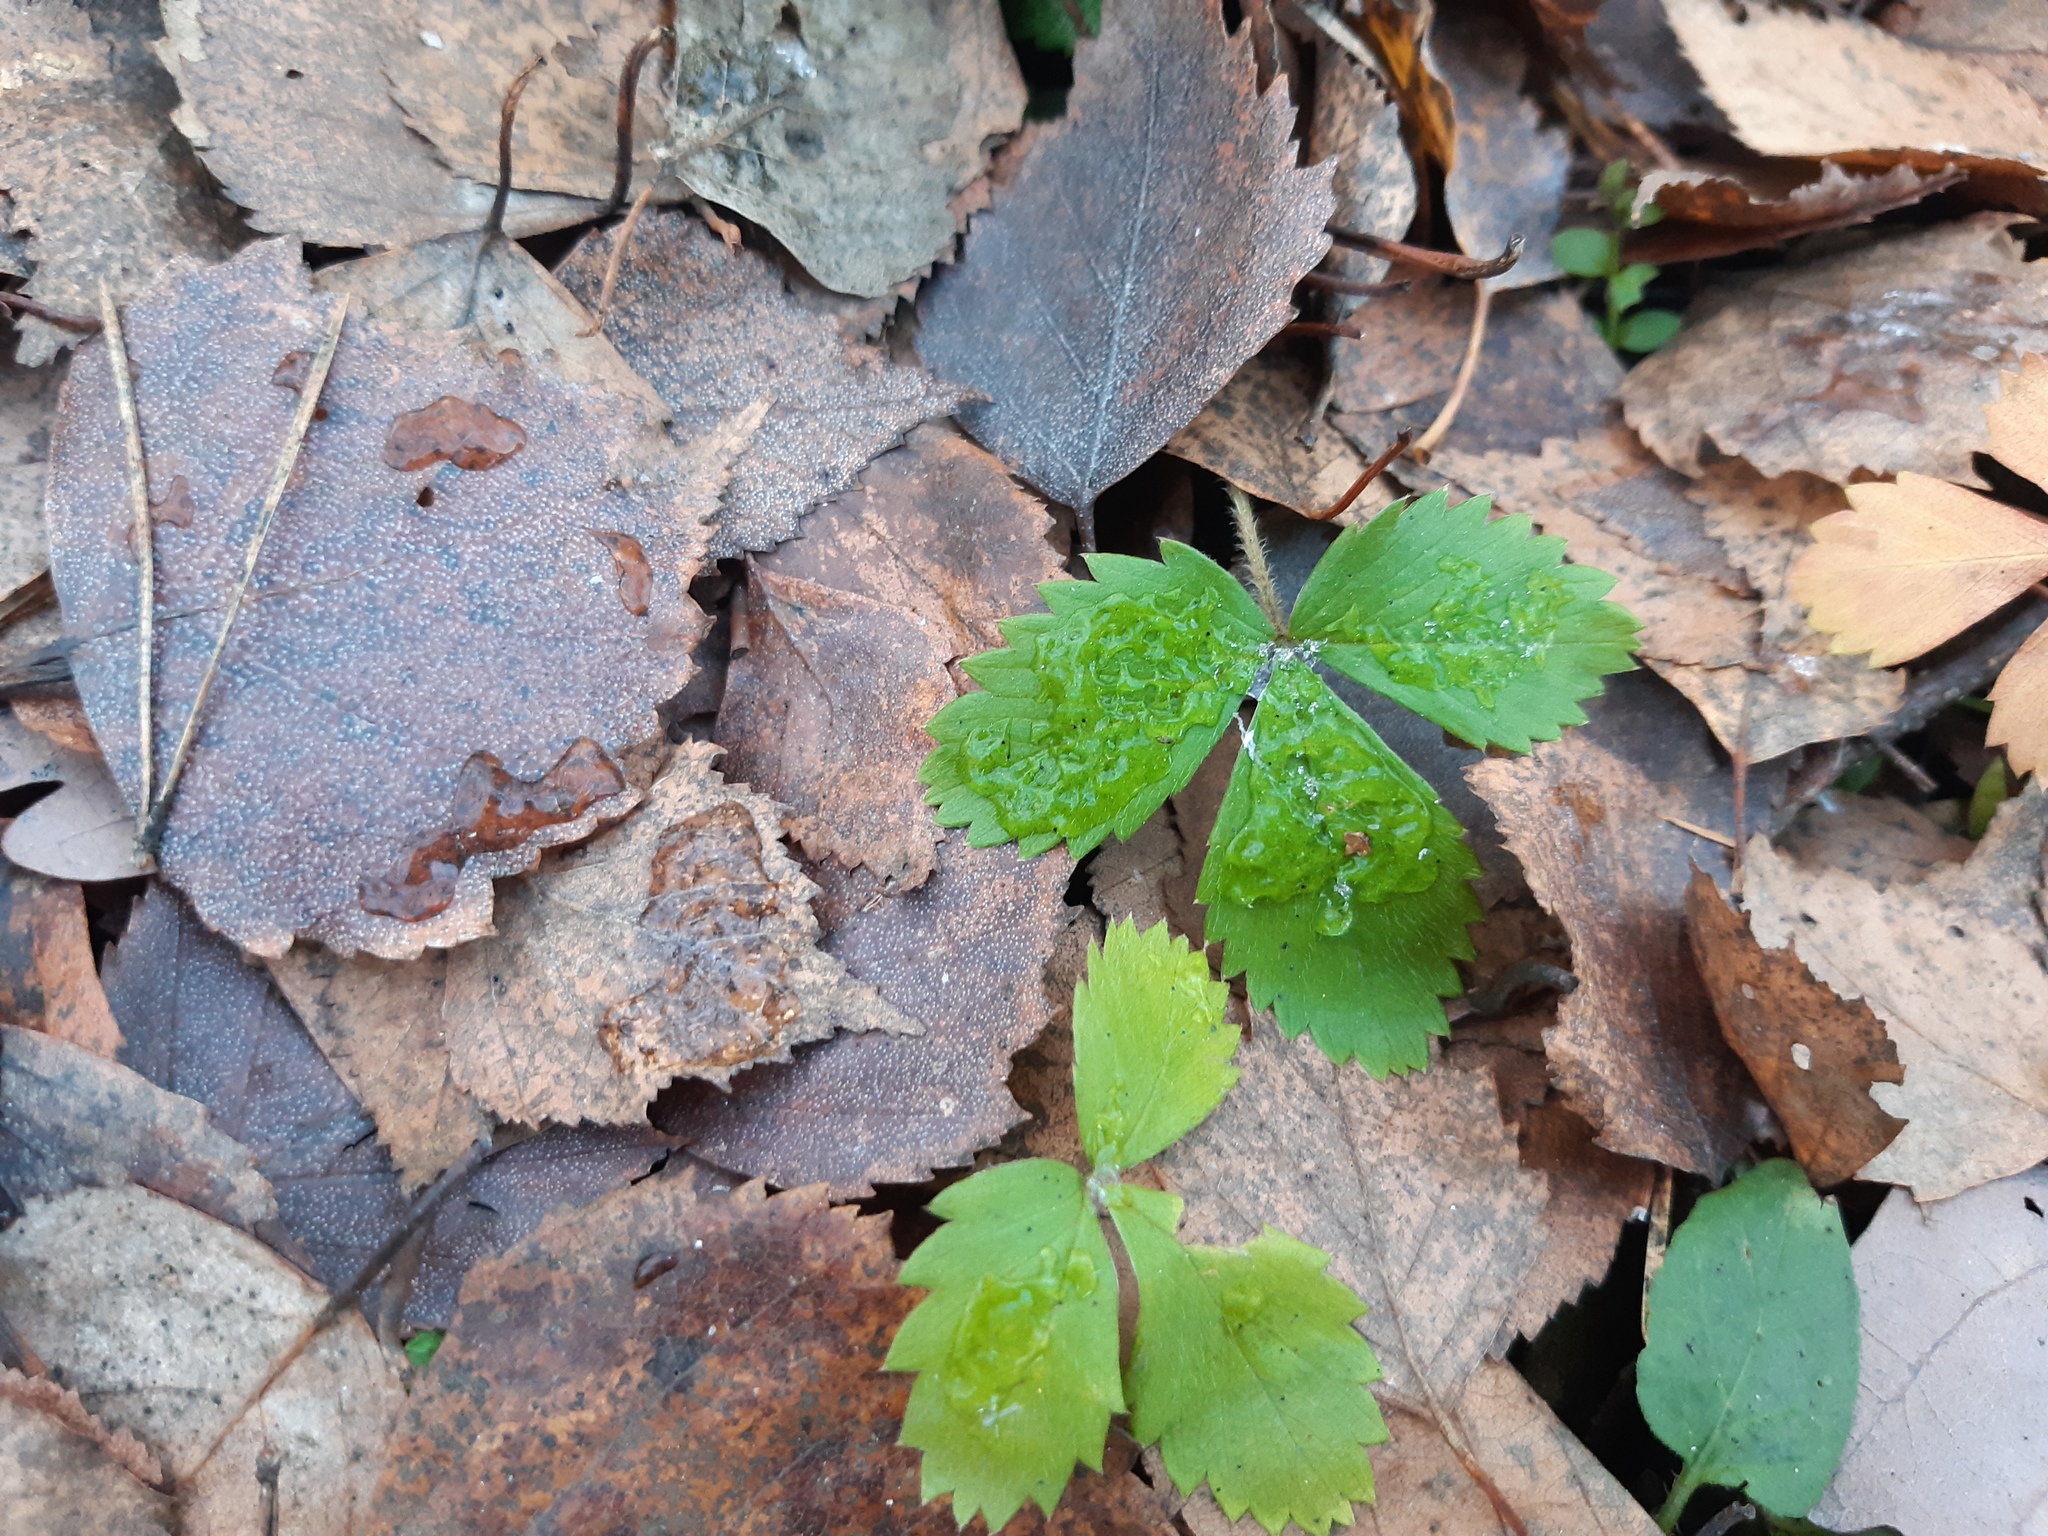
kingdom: Plantae
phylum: Tracheophyta
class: Magnoliopsida
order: Rosales
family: Rosaceae
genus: Fragaria
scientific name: Fragaria vesca
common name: Wild strawberry
